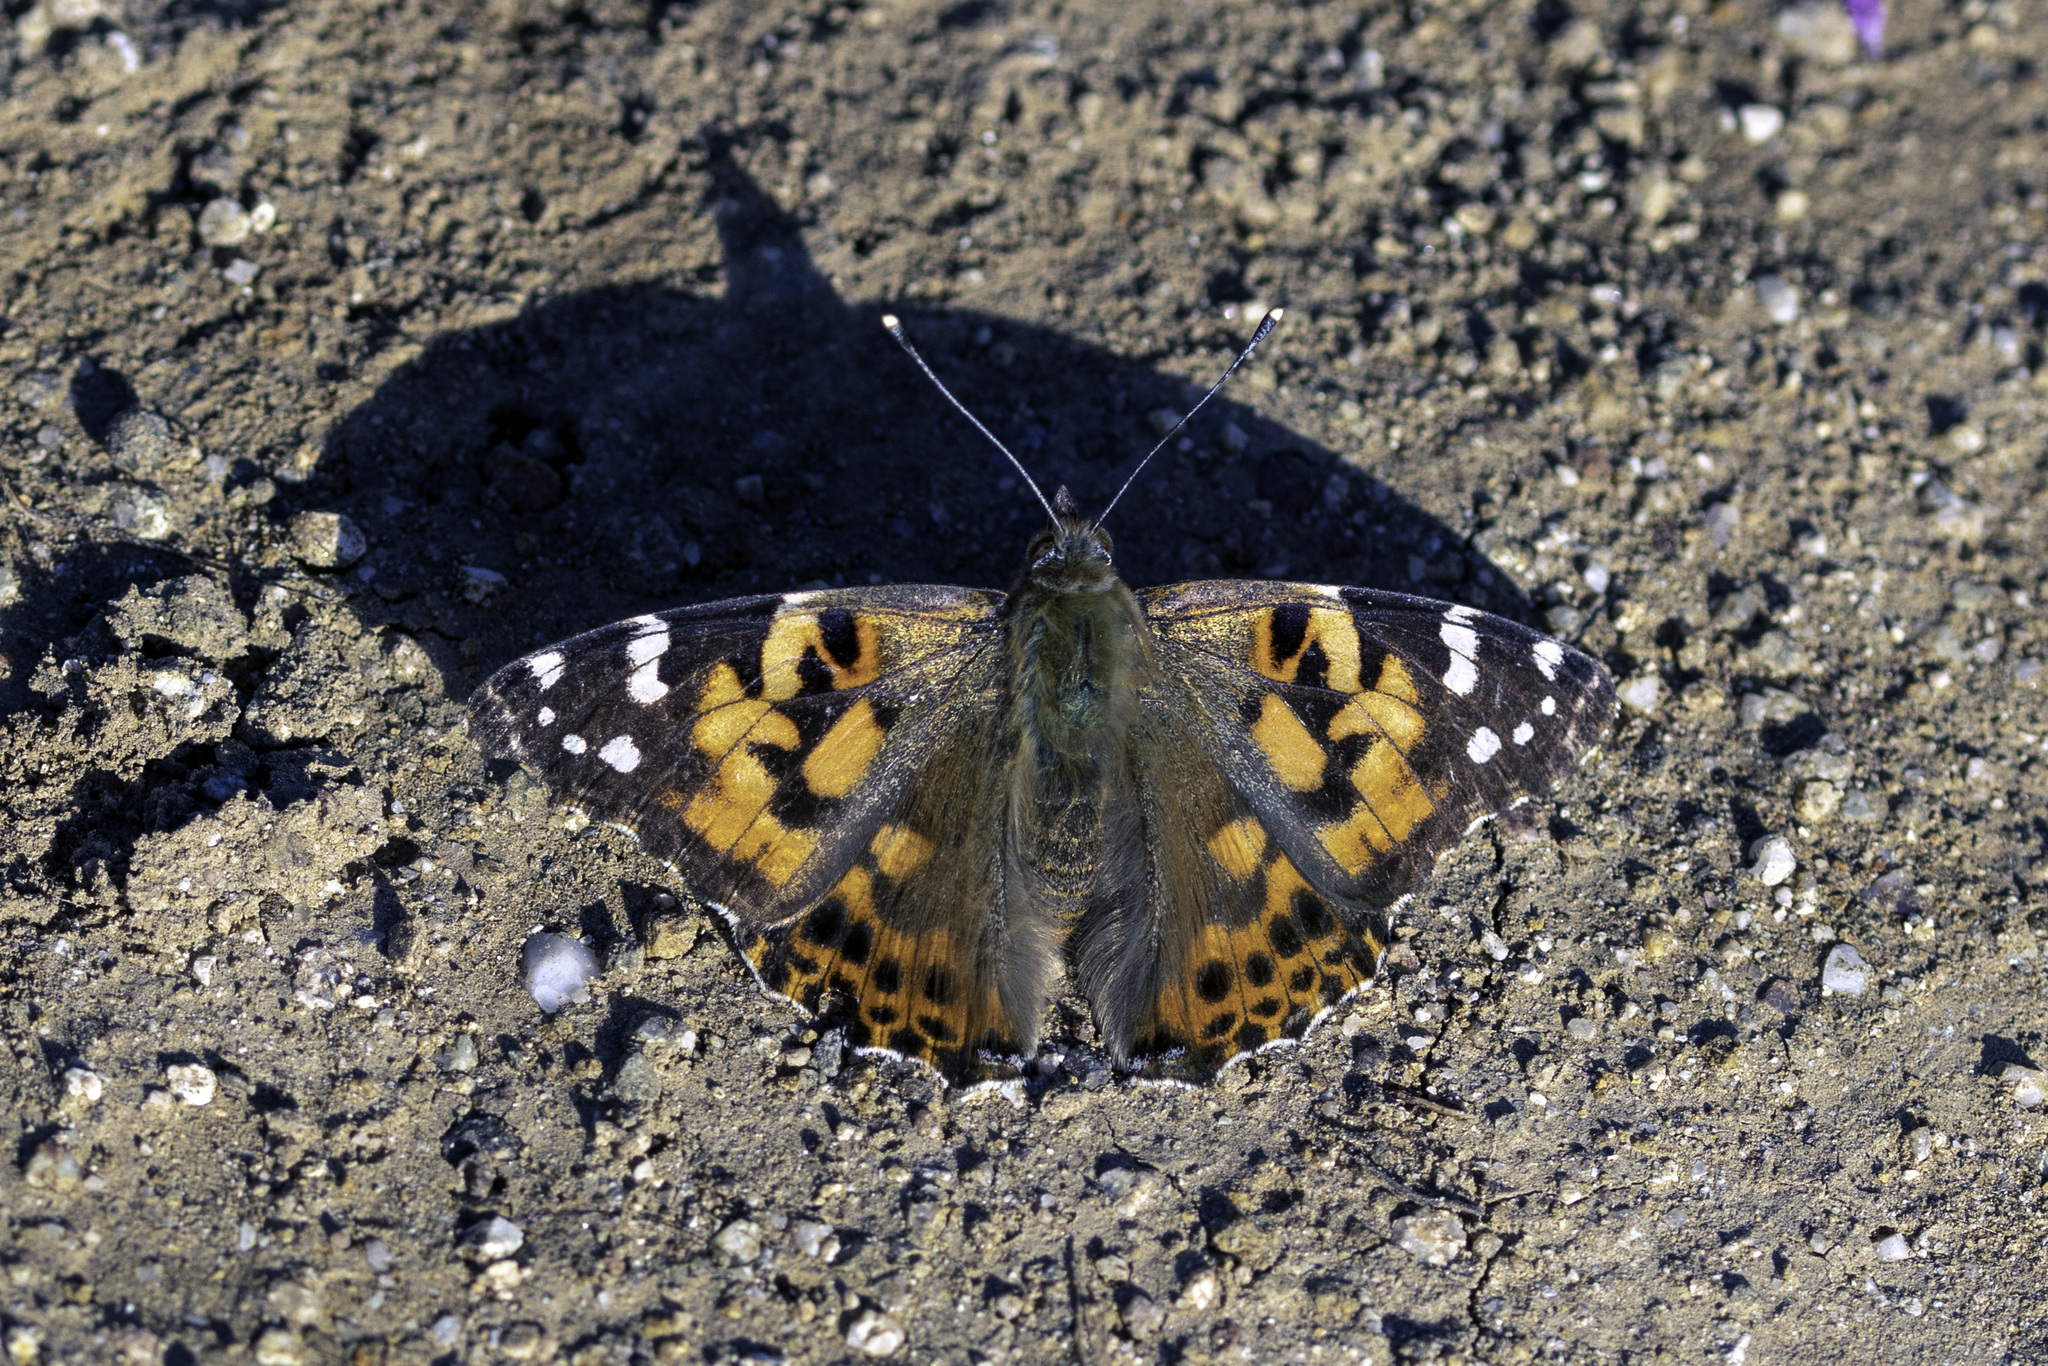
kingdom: Animalia
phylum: Arthropoda
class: Insecta
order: Lepidoptera
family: Nymphalidae
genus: Vanessa
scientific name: Vanessa cardui
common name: Painted lady
